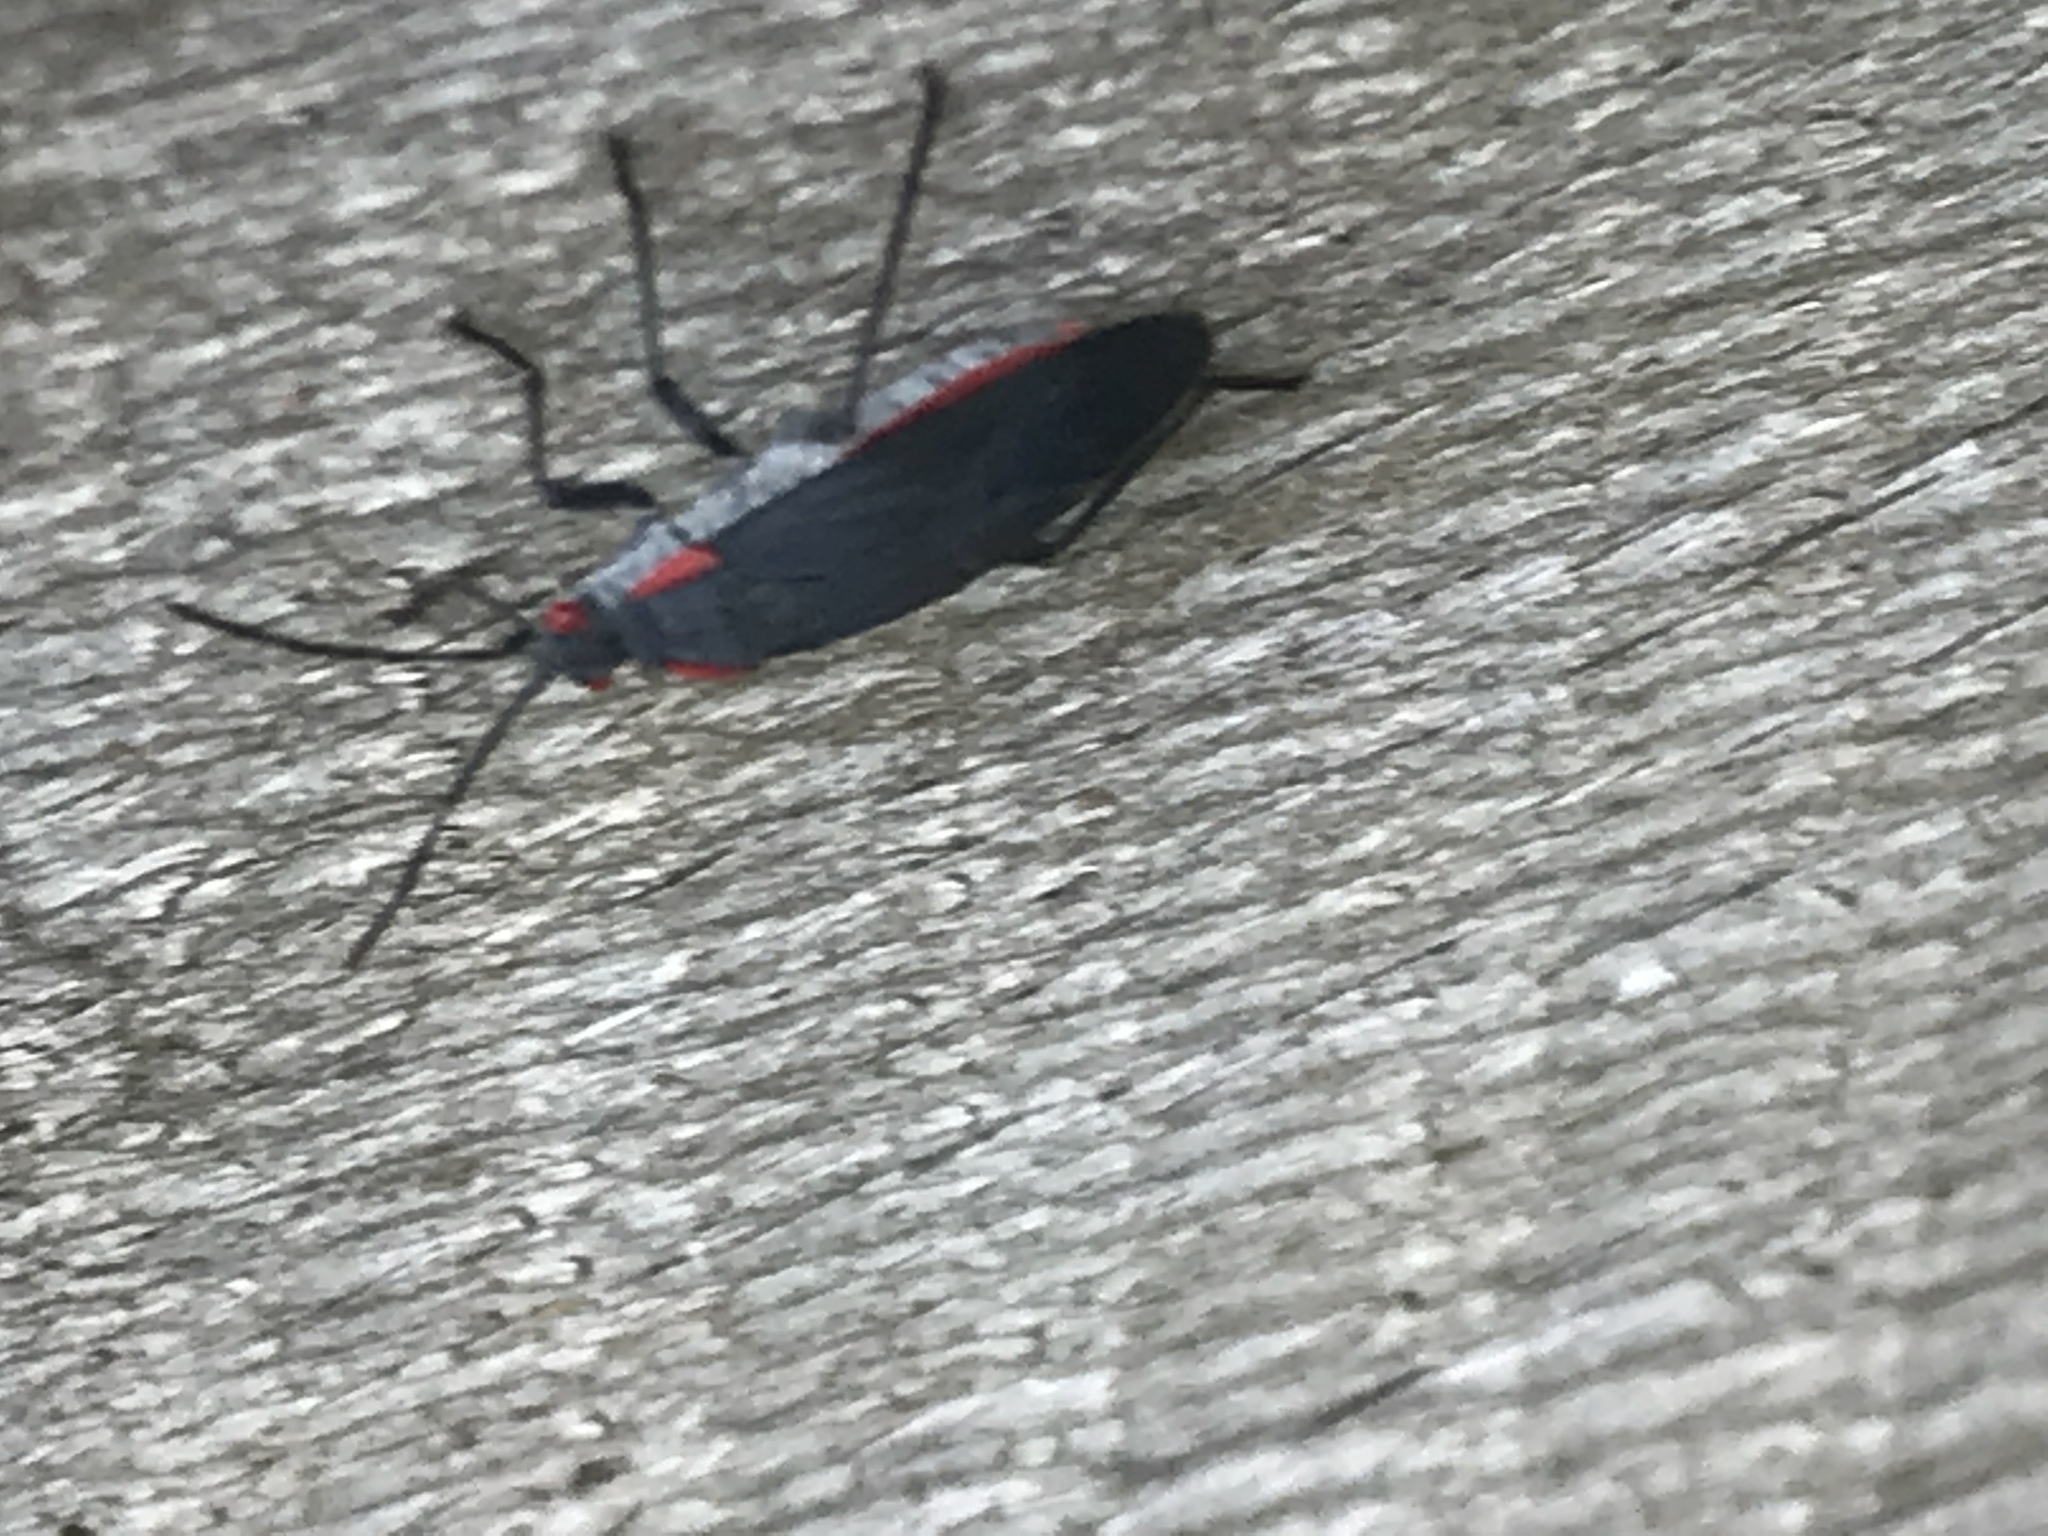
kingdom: Animalia
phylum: Arthropoda
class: Insecta
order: Hemiptera
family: Rhopalidae
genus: Jadera
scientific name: Jadera haematoloma
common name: Red-shouldered bug
